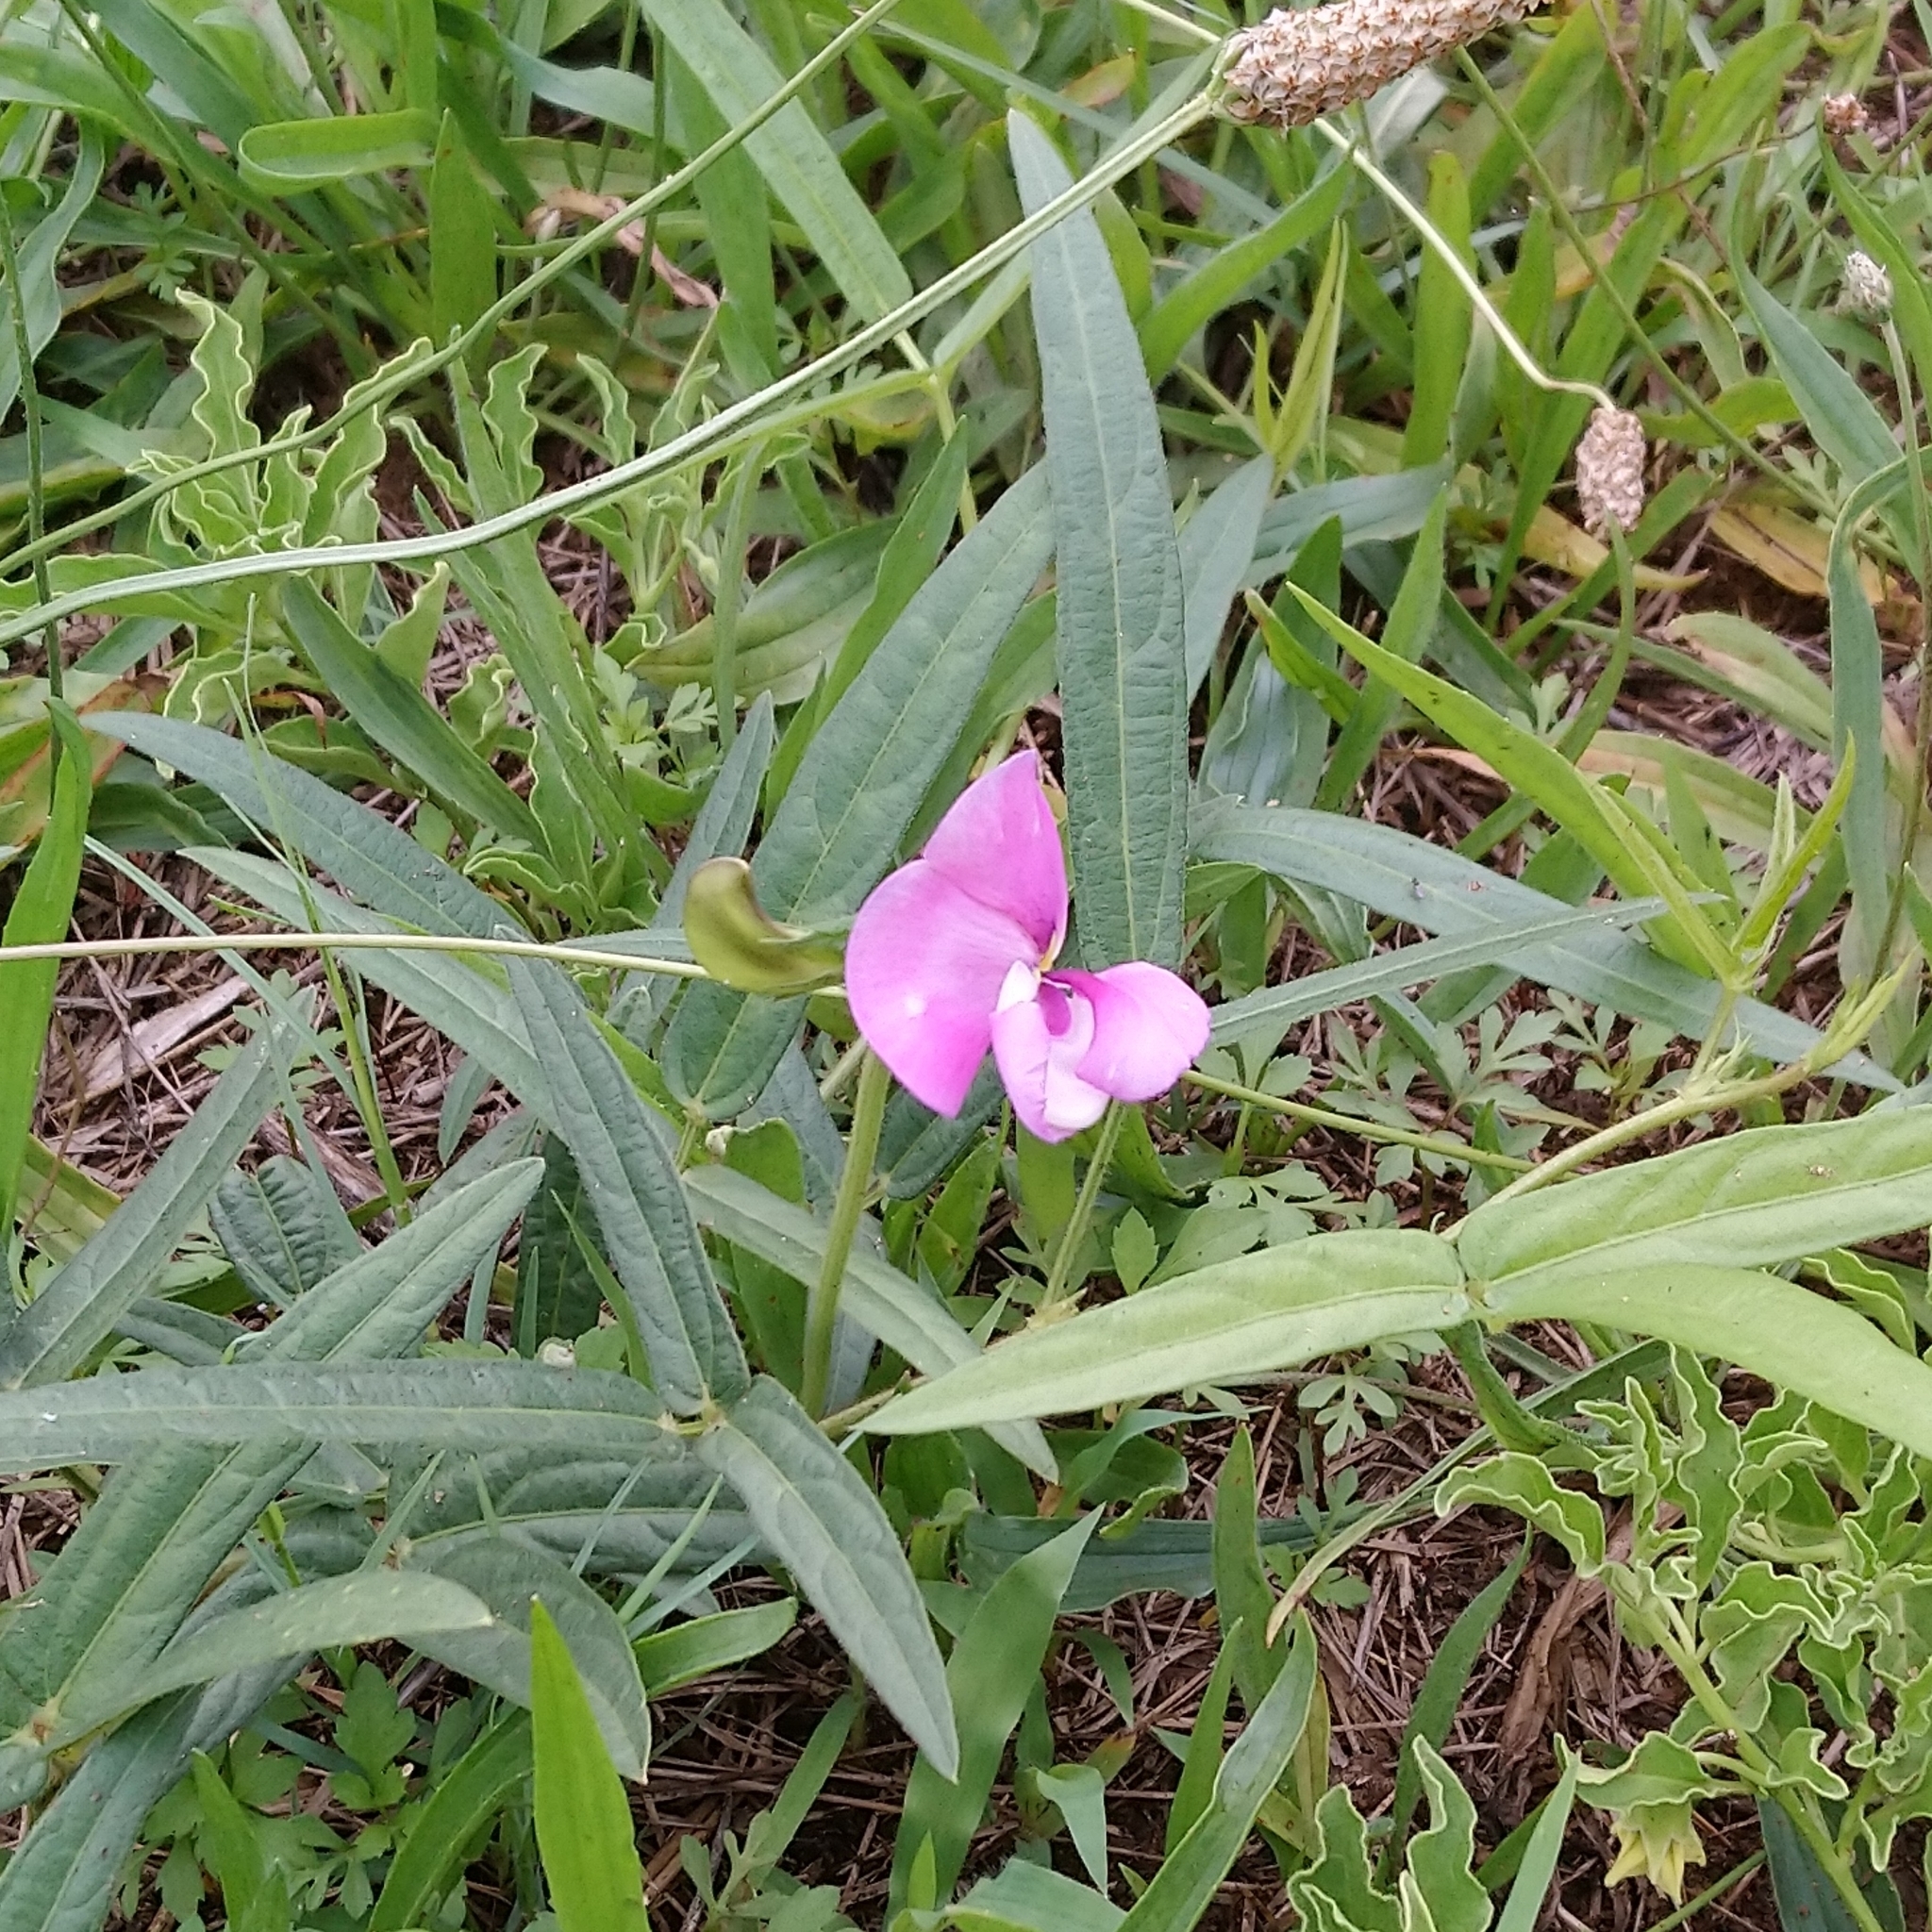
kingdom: Plantae
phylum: Tracheophyta
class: Magnoliopsida
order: Fabales
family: Fabaceae
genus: Vigna
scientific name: Vigna vexillata
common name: Zombi pea
